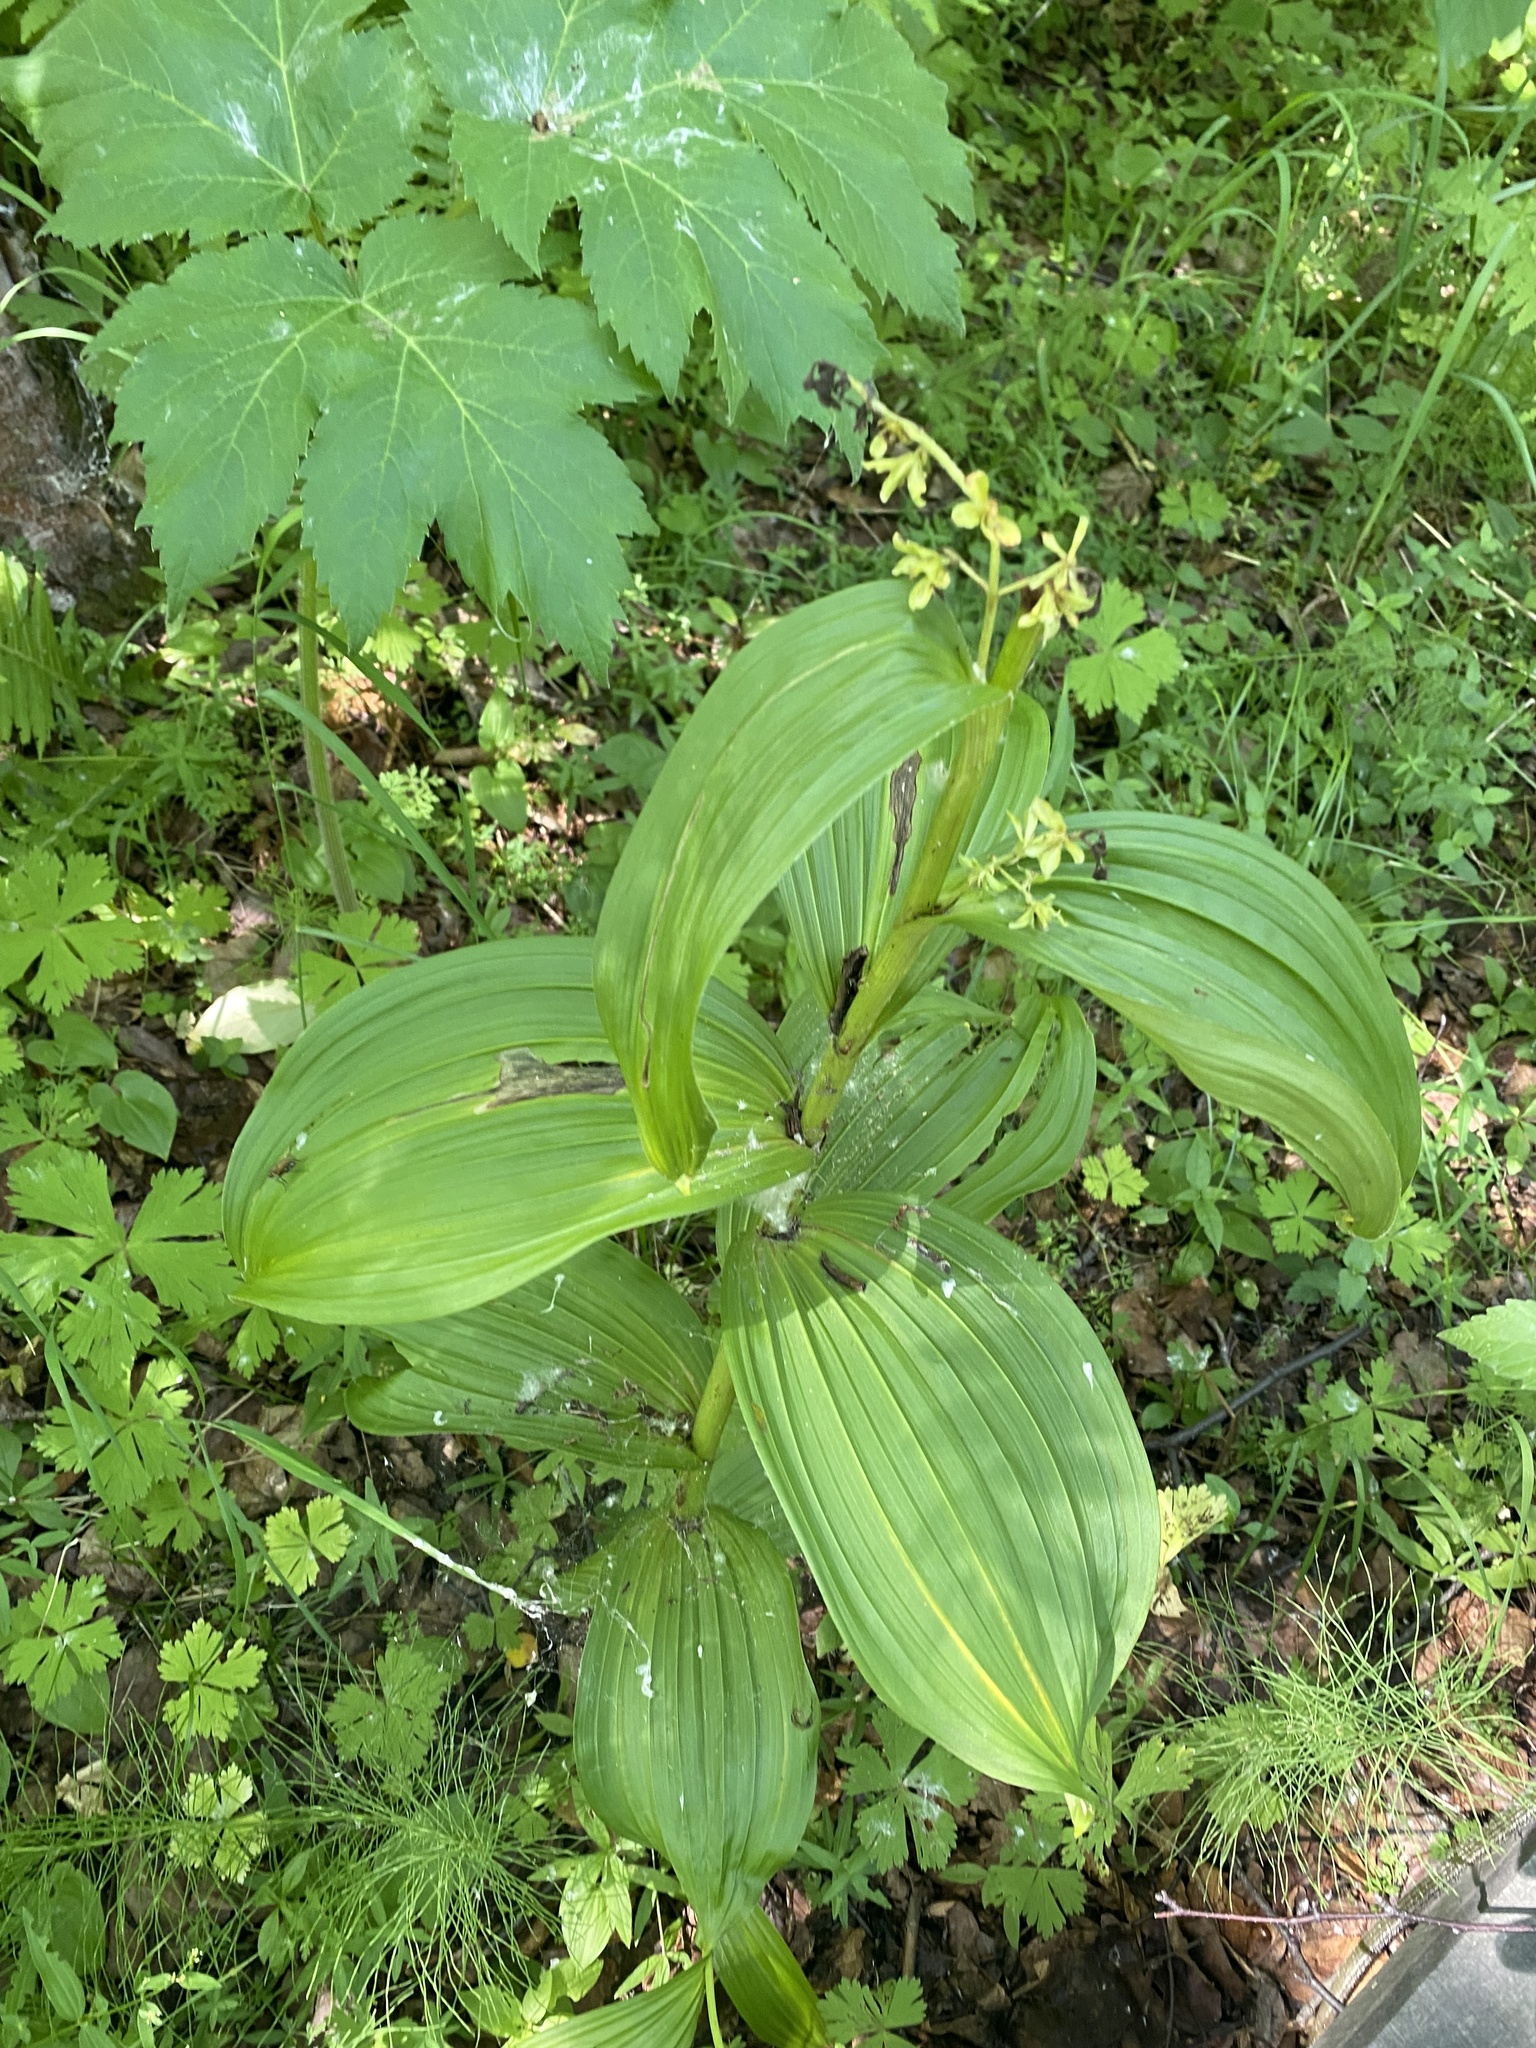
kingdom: Plantae
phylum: Tracheophyta
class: Liliopsida
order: Liliales
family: Melanthiaceae
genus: Veratrum
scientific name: Veratrum lobelianum
